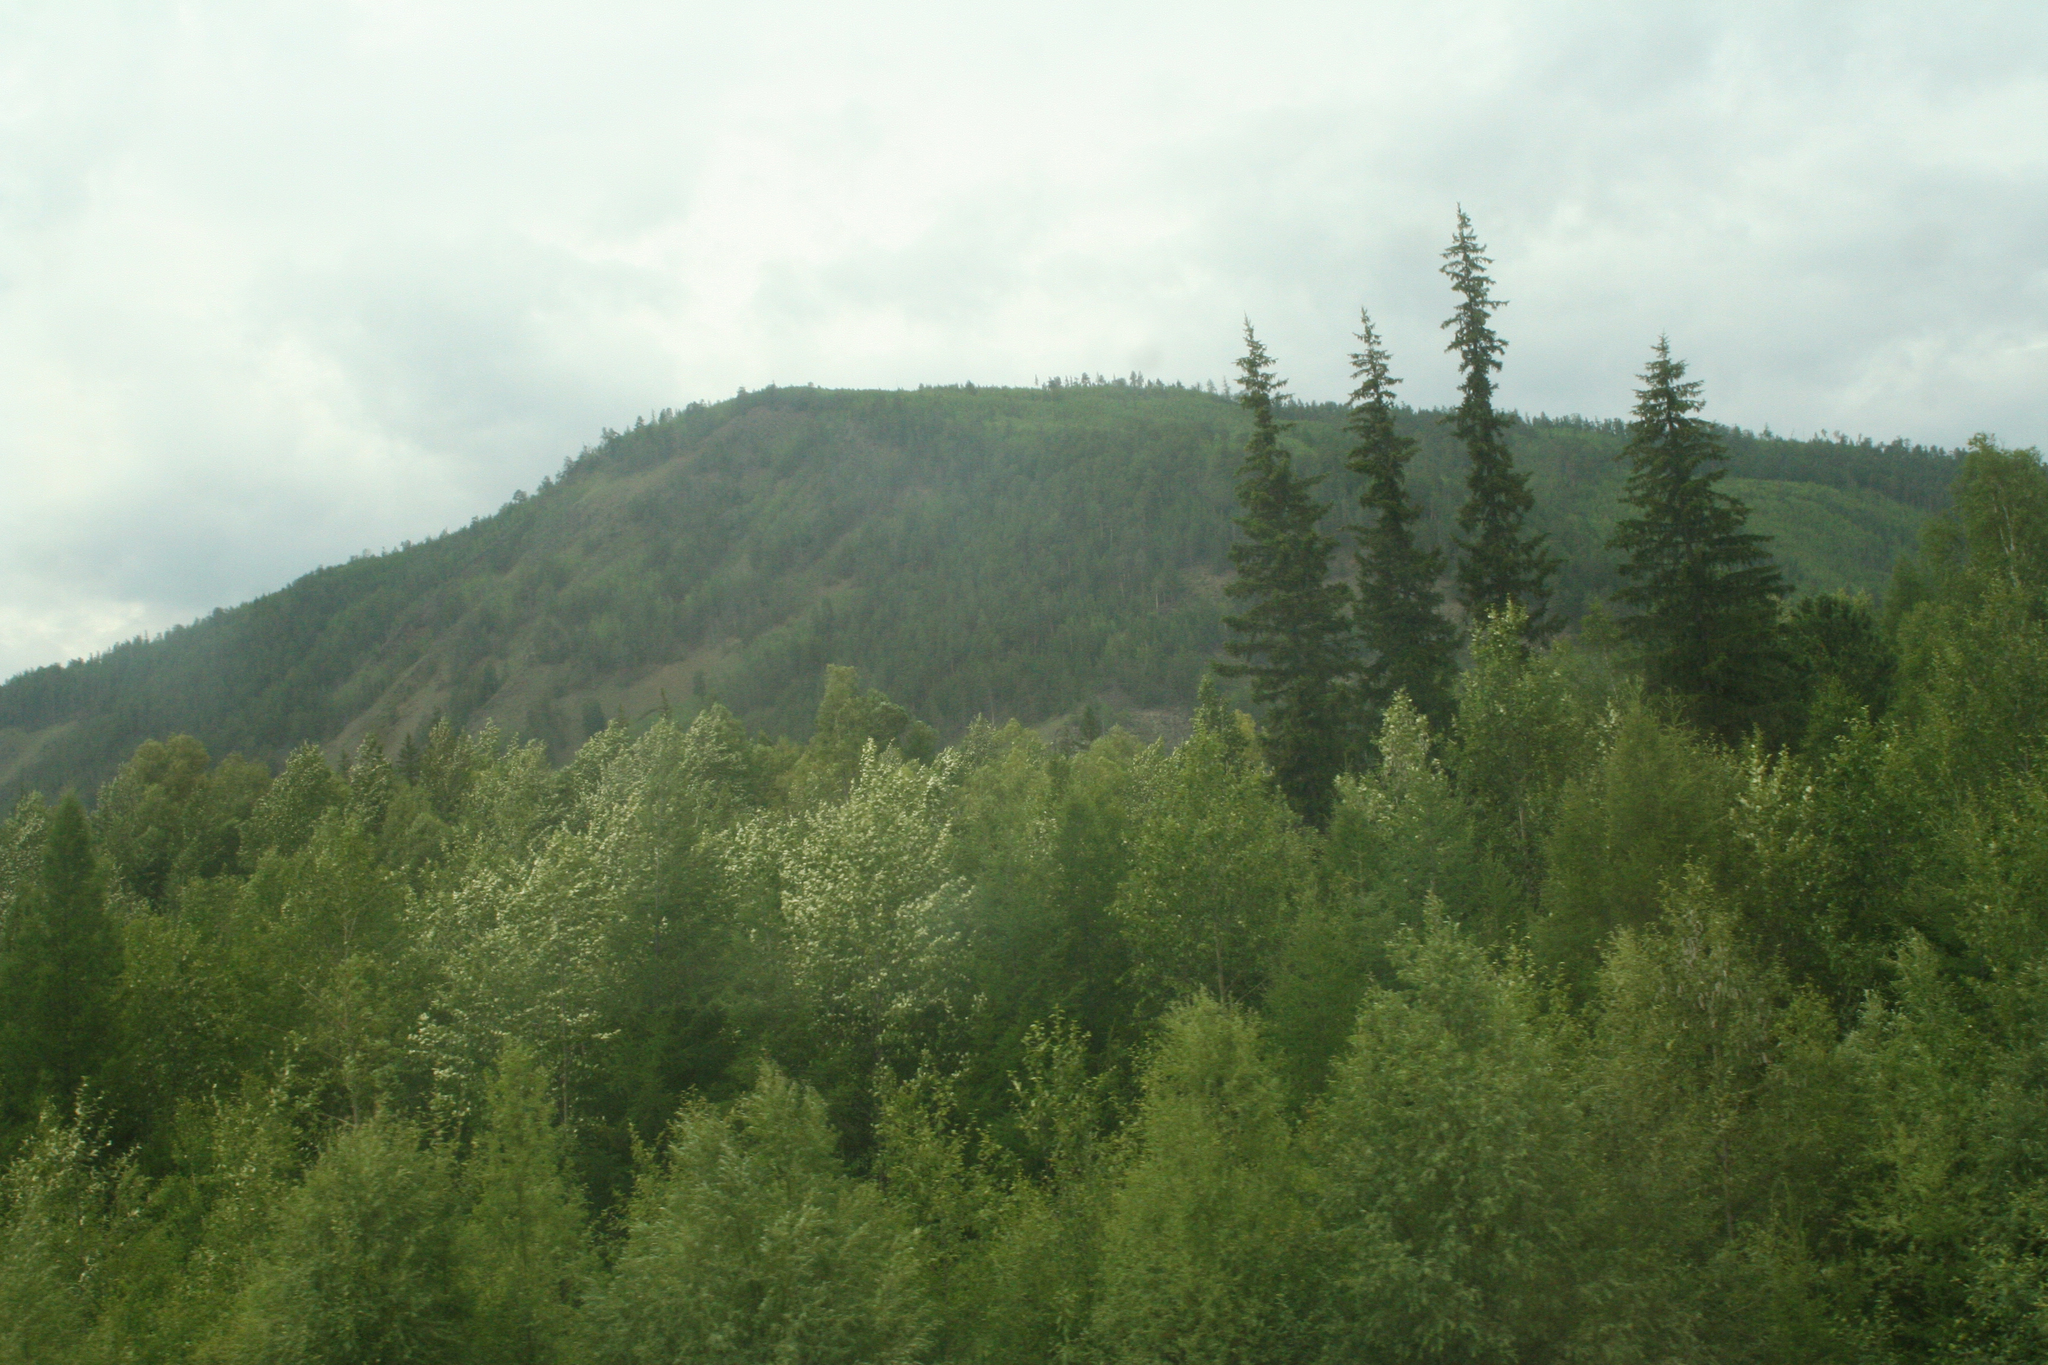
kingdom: Plantae
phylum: Tracheophyta
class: Pinopsida
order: Pinales
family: Pinaceae
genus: Picea
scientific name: Picea obovata
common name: Siberian spruce
